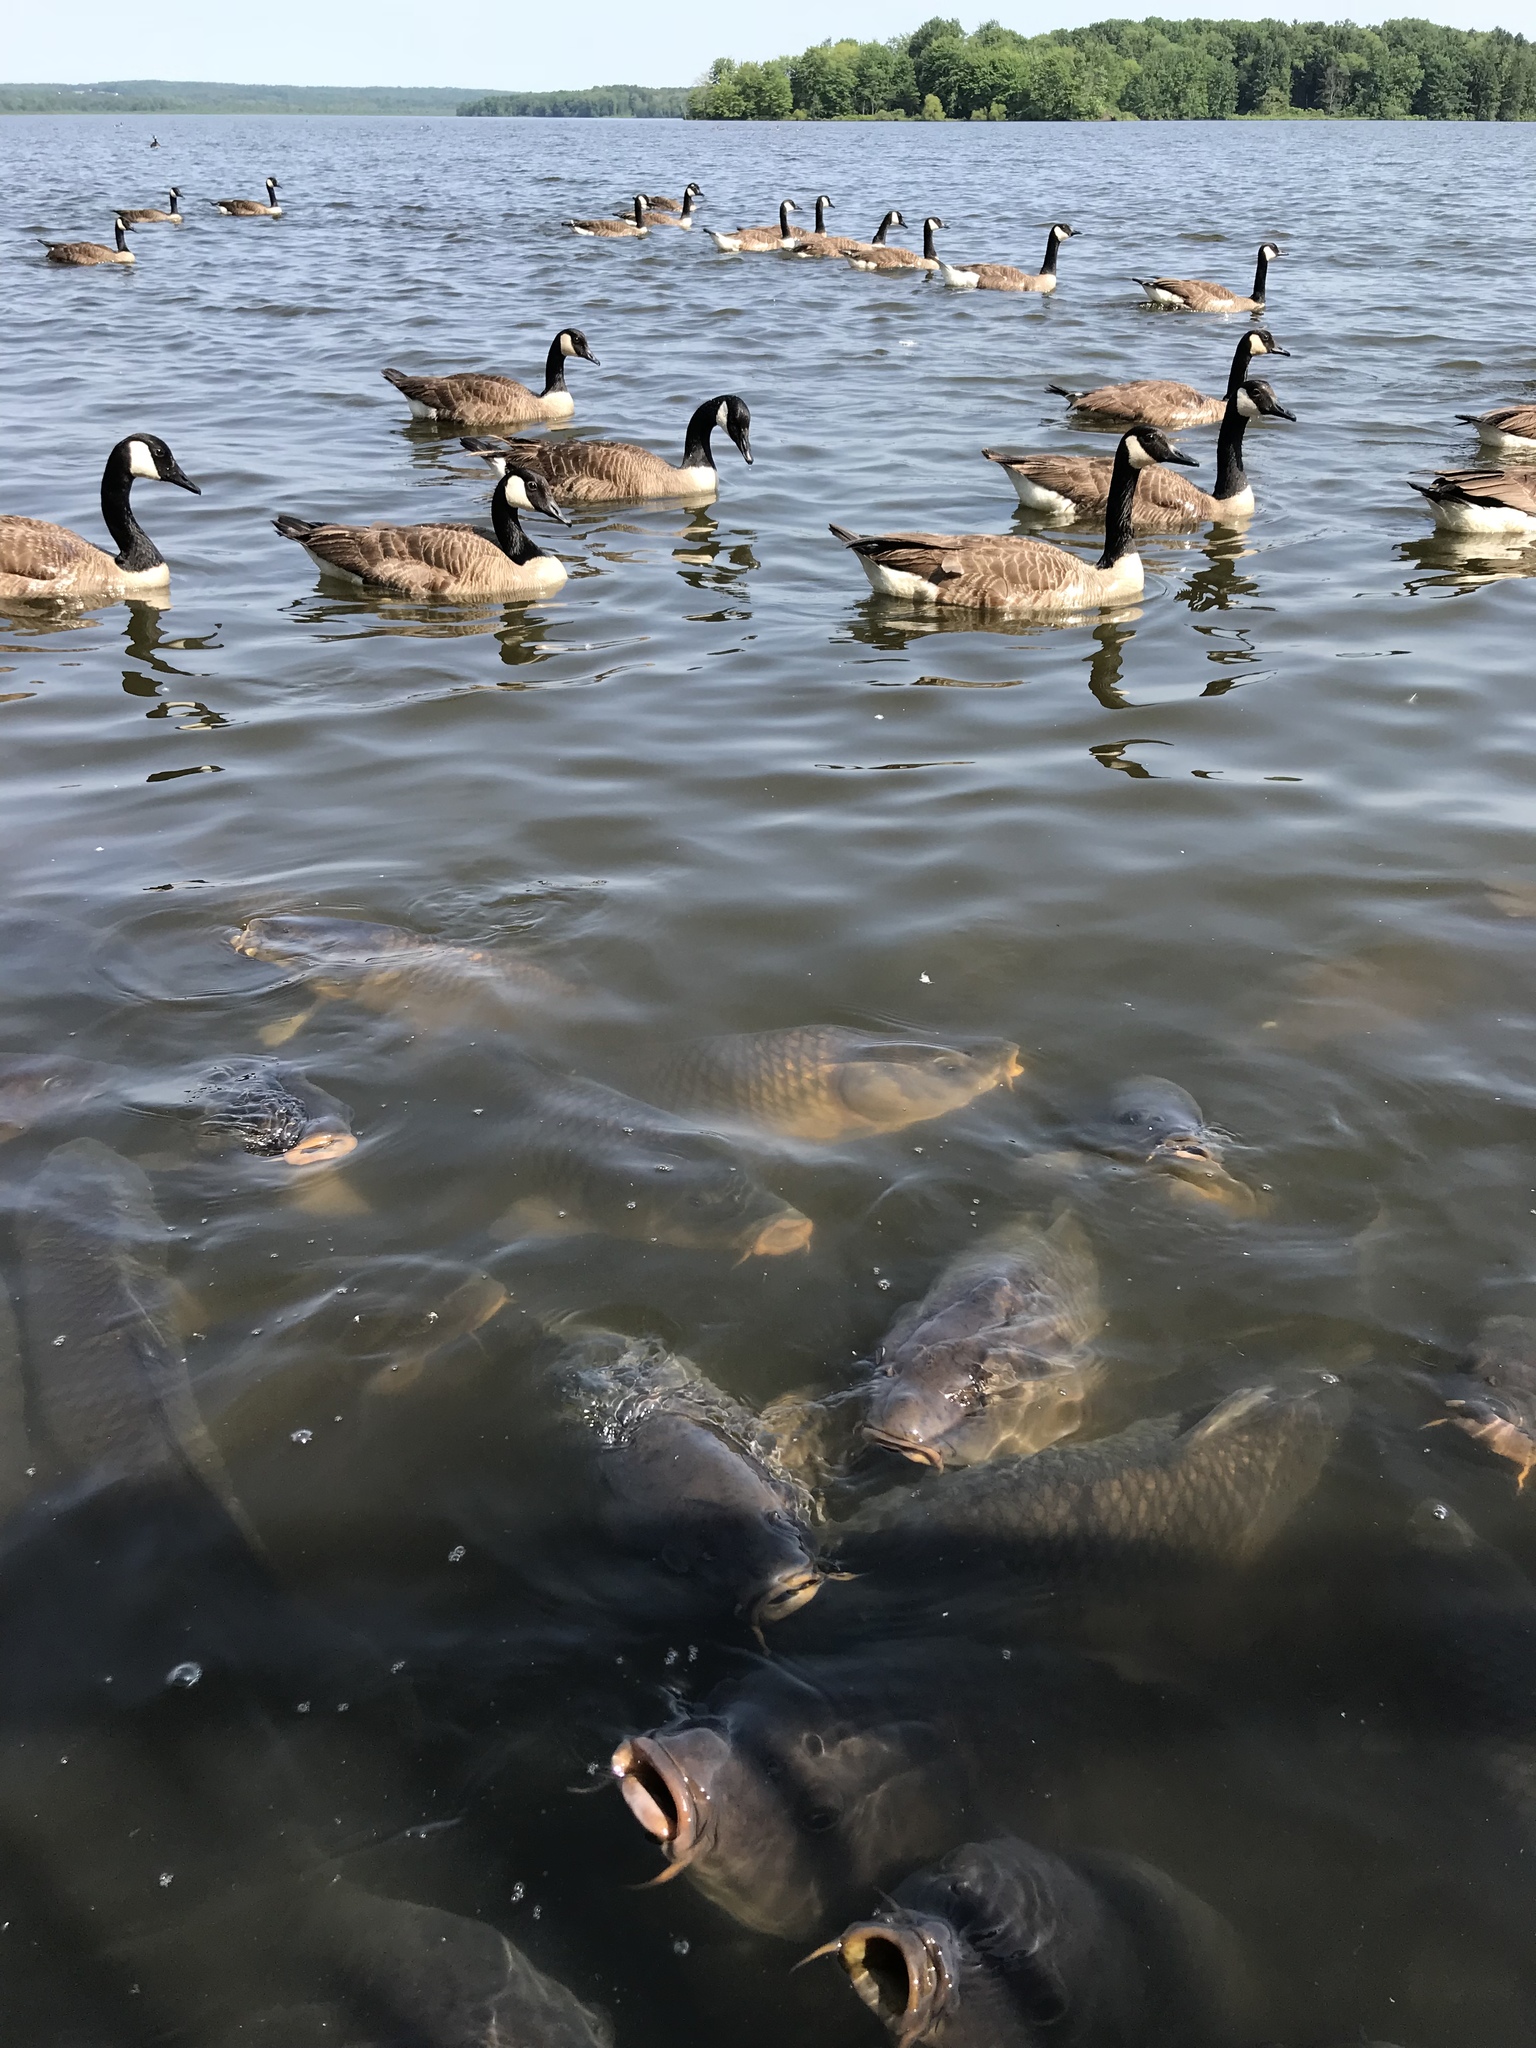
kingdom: Animalia
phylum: Chordata
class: Aves
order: Anseriformes
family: Anatidae
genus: Branta
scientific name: Branta canadensis
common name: Canada goose
